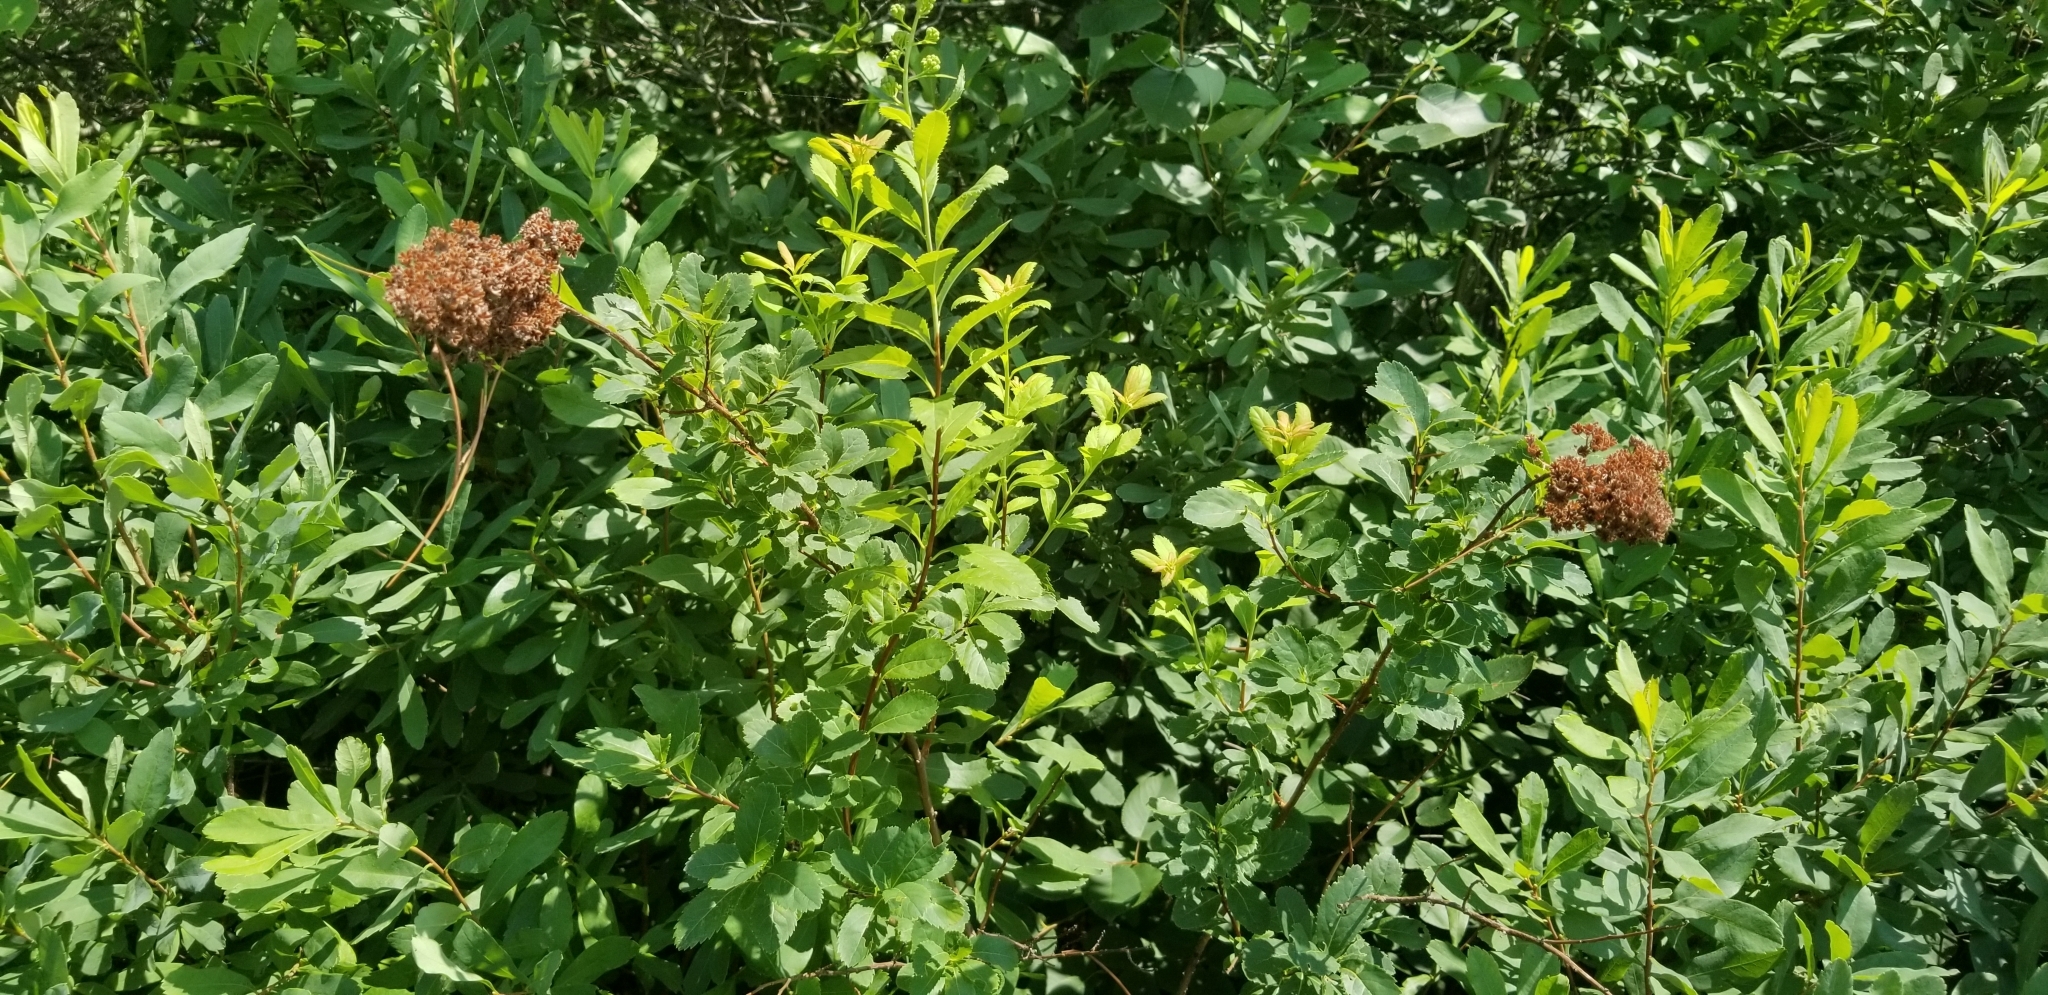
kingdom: Plantae
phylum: Tracheophyta
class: Magnoliopsida
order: Rosales
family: Rosaceae
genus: Spiraea
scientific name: Spiraea alba
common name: Pale bridewort
